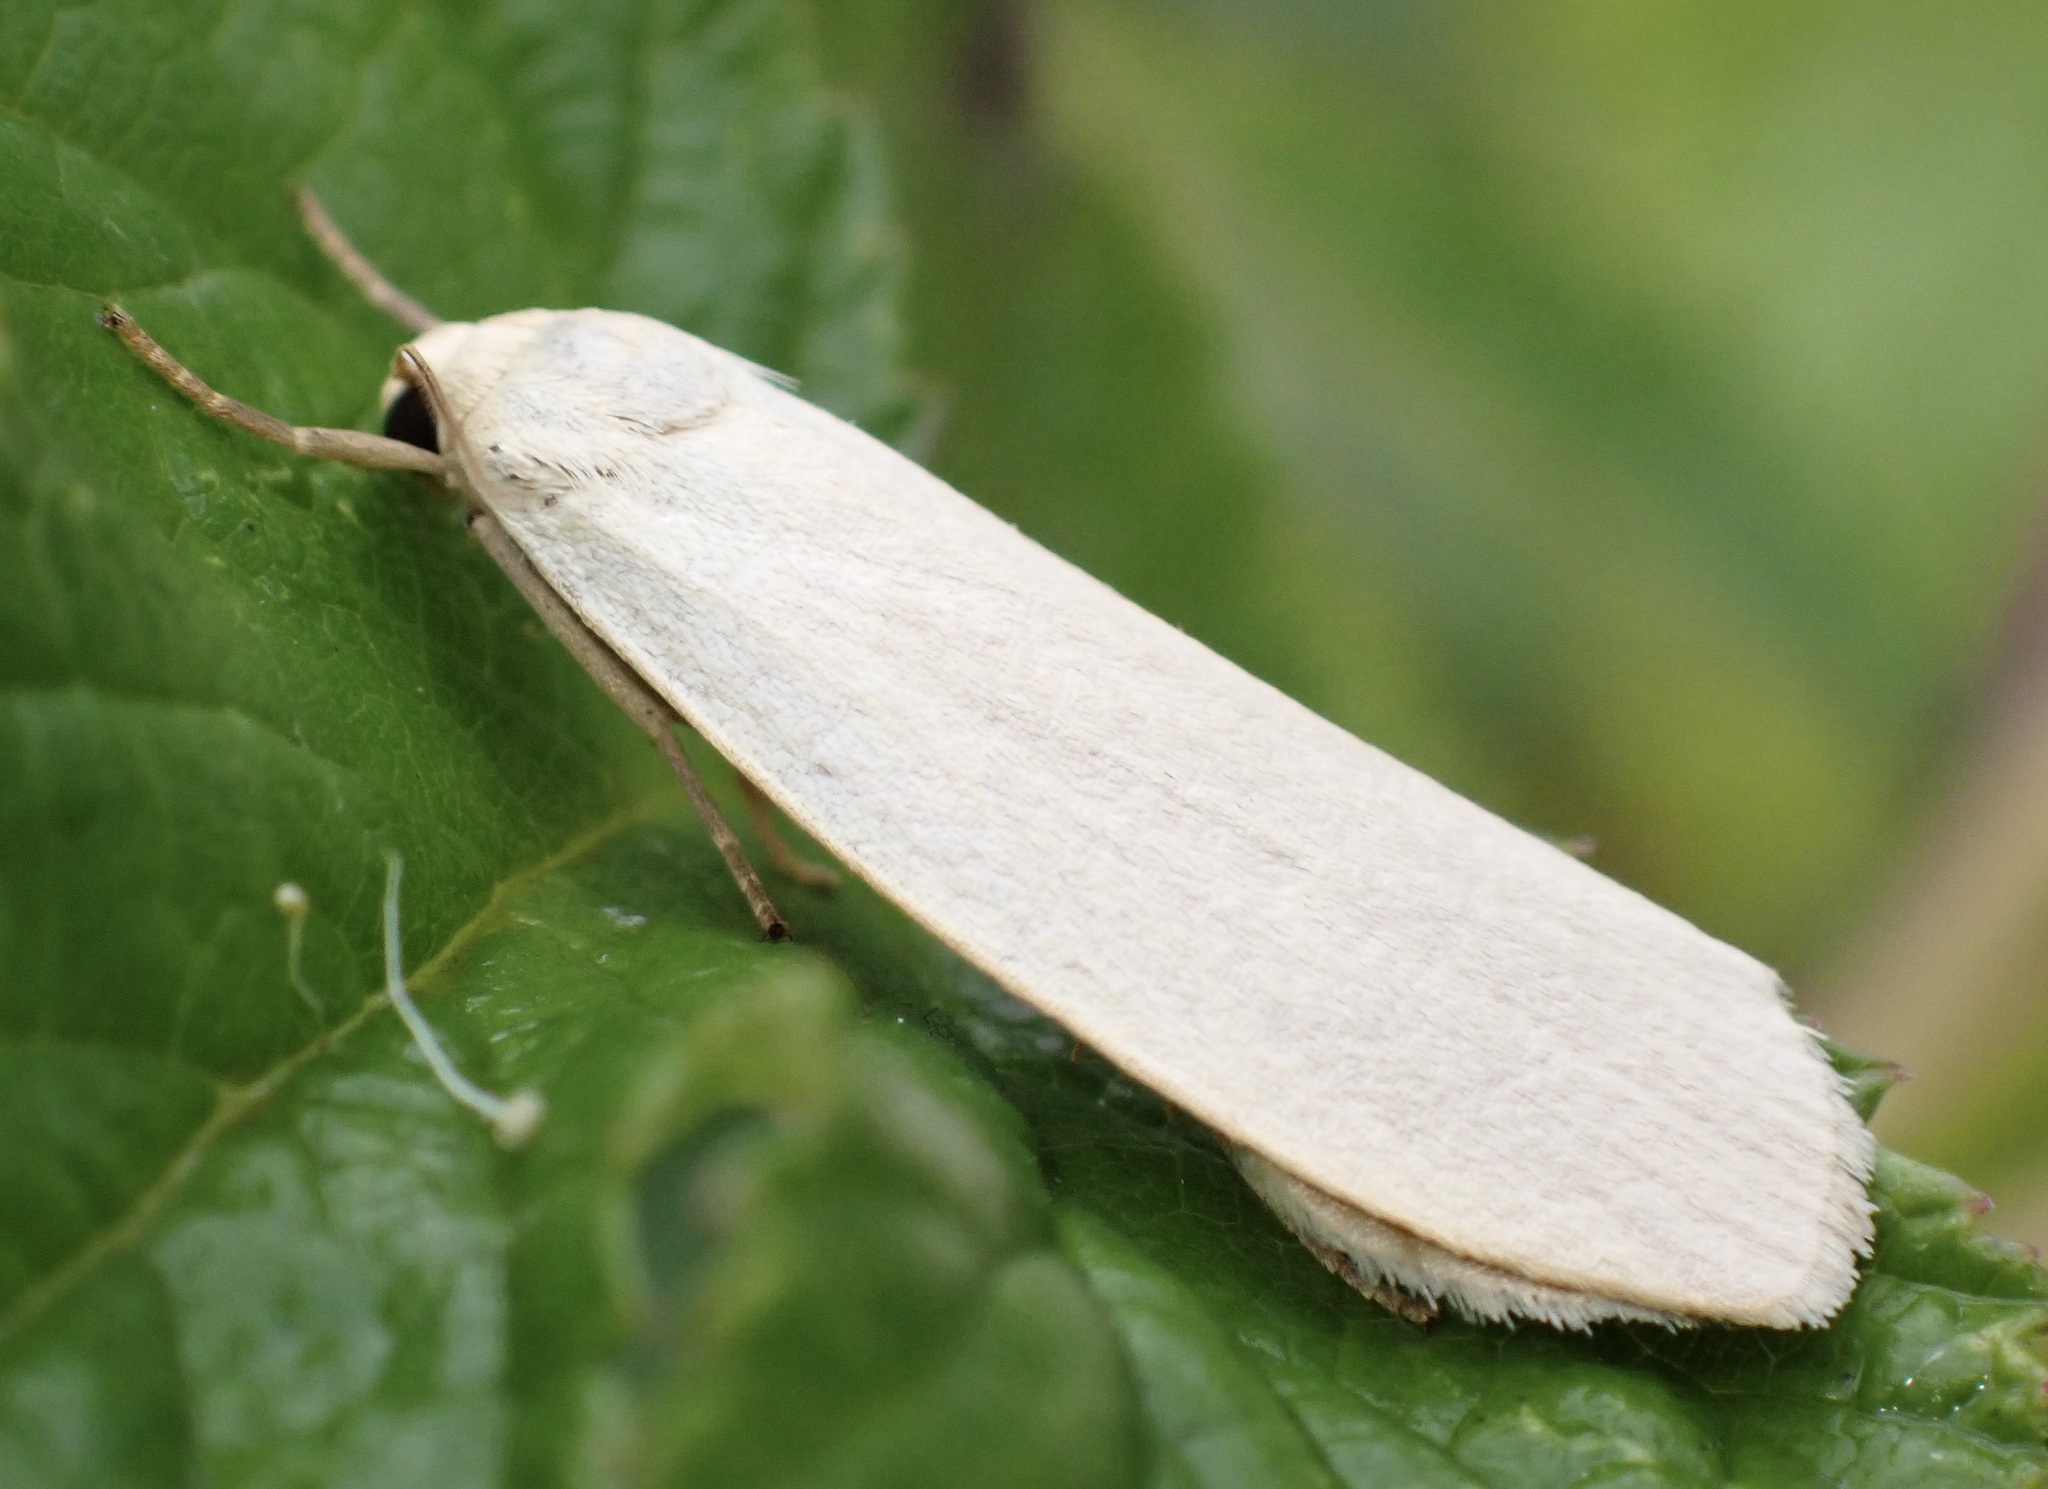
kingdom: Animalia
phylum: Arthropoda
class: Insecta
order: Lepidoptera
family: Erebidae
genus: Collita
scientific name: Collita griseola
